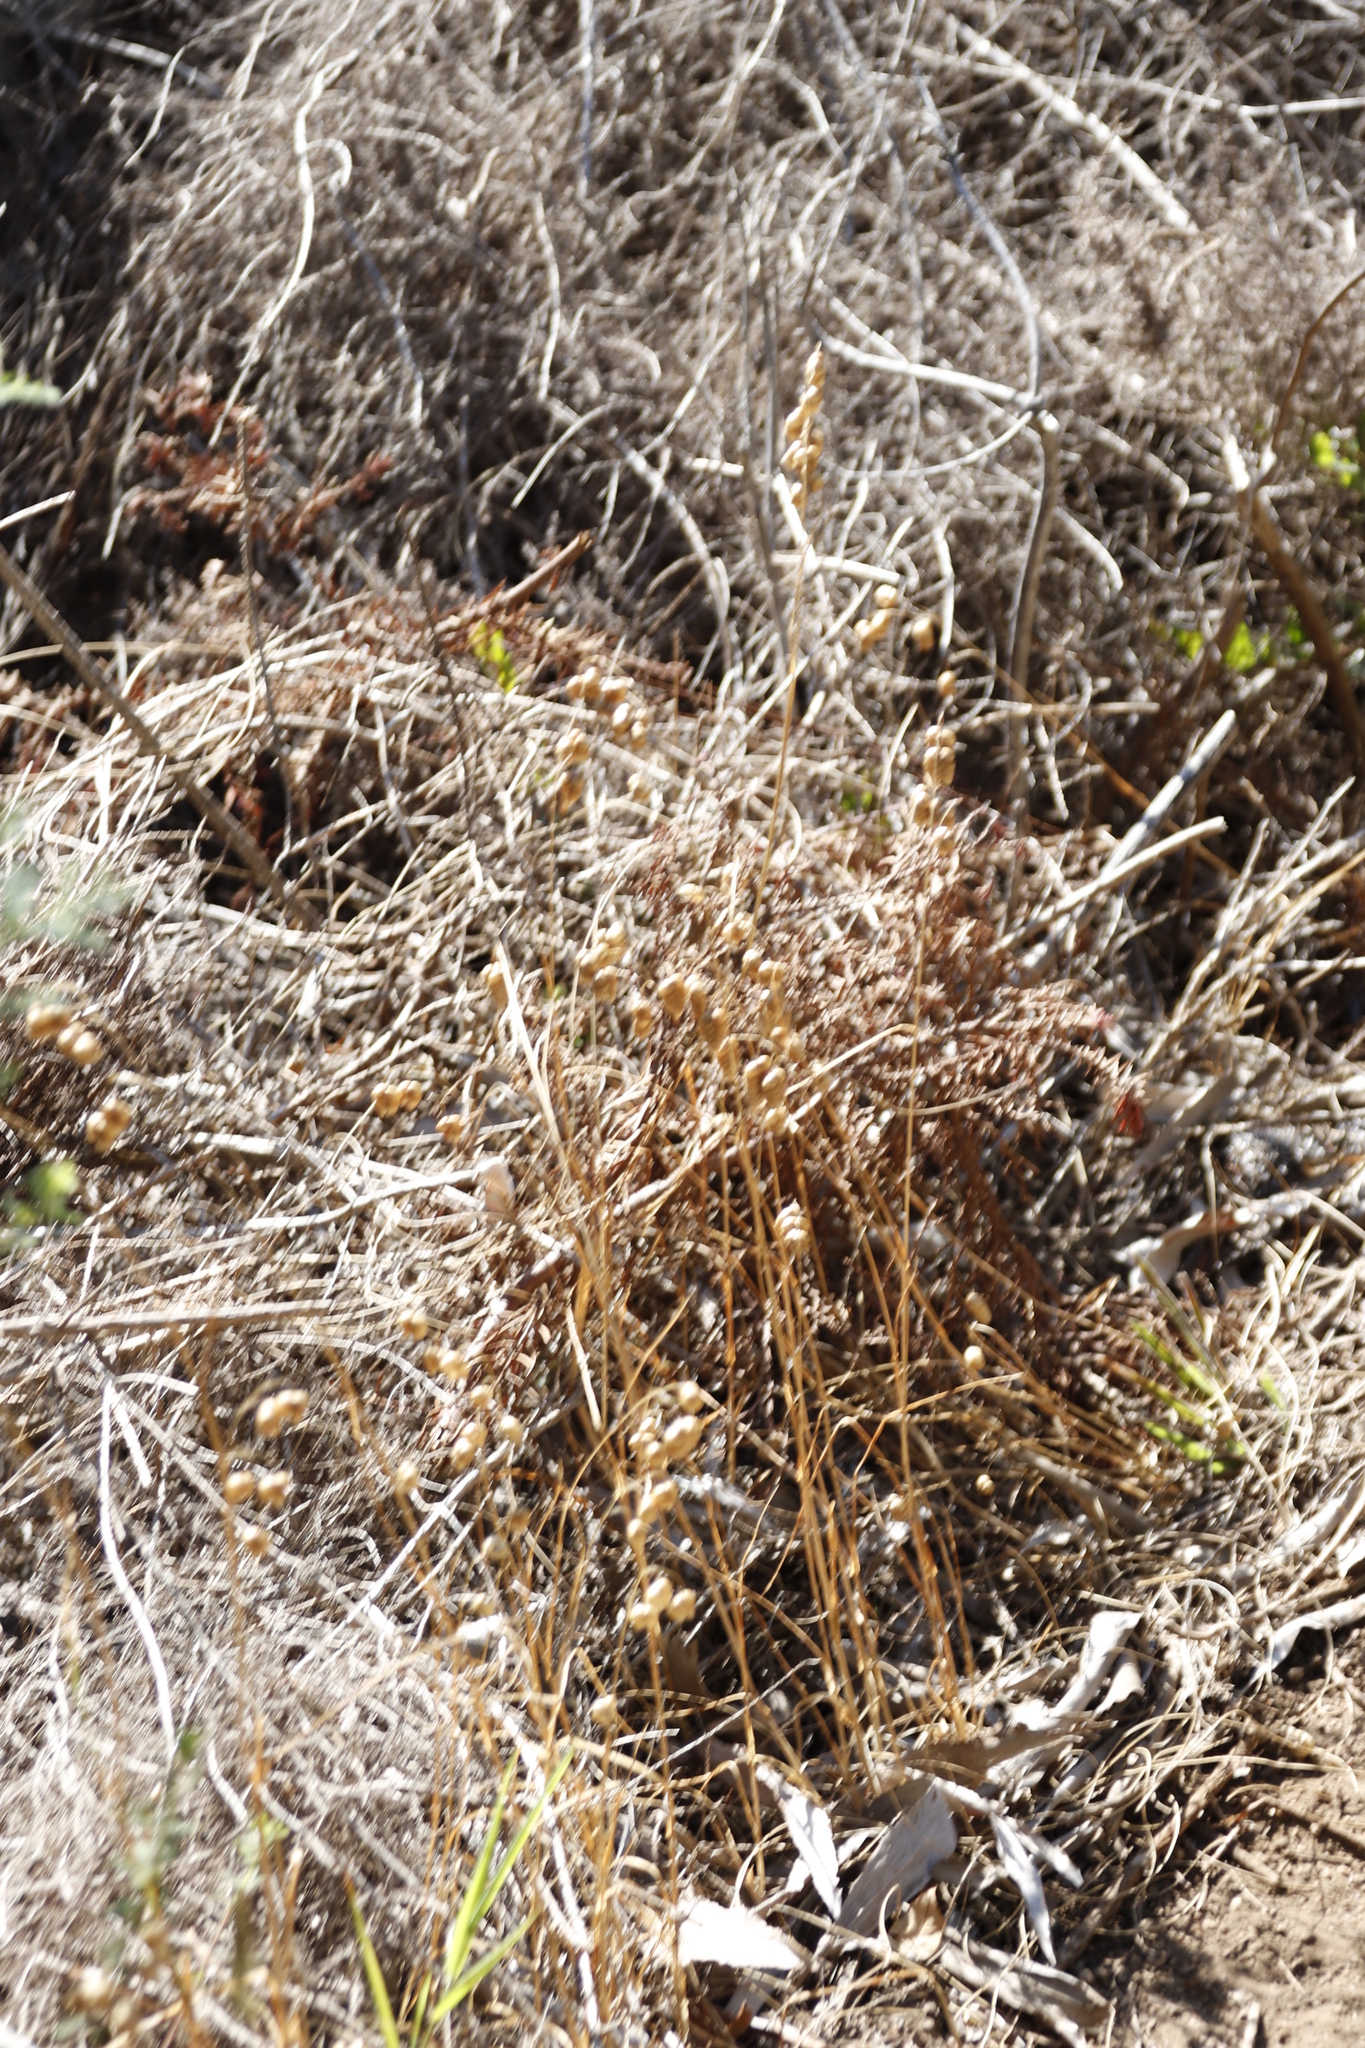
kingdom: Plantae
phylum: Tracheophyta
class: Liliopsida
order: Poales
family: Poaceae
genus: Briza
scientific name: Briza maxima
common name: Big quakinggrass
